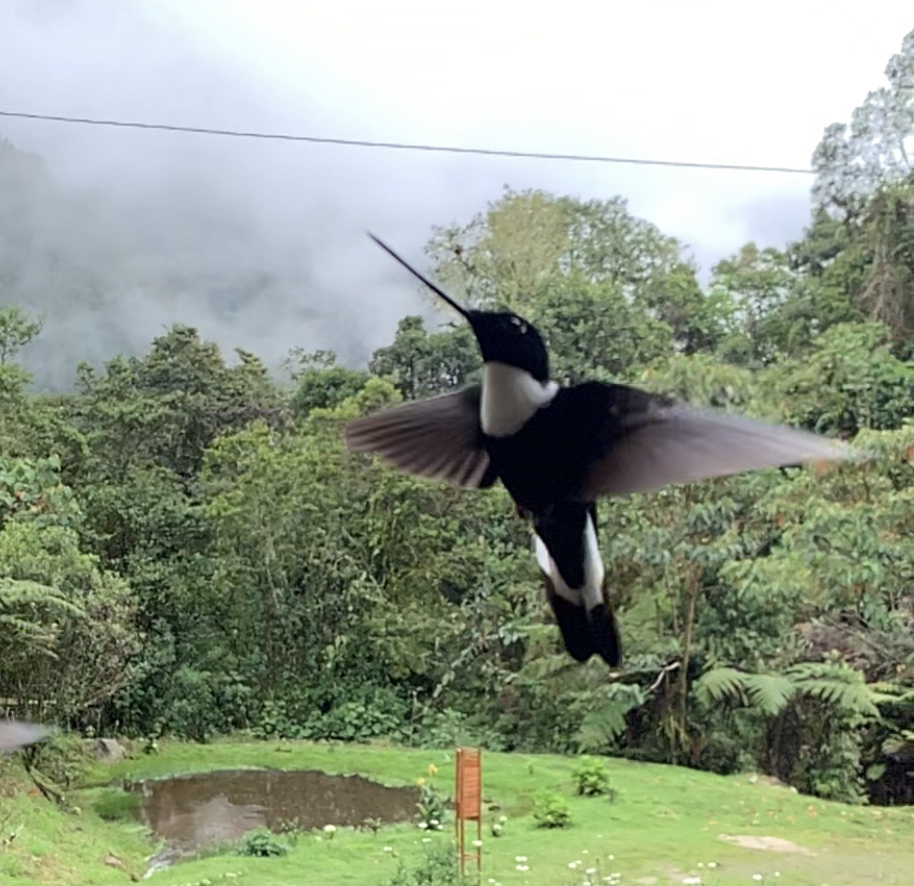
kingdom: Animalia
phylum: Chordata
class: Aves
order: Apodiformes
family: Trochilidae
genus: Coeligena
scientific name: Coeligena torquata
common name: Collared inca
